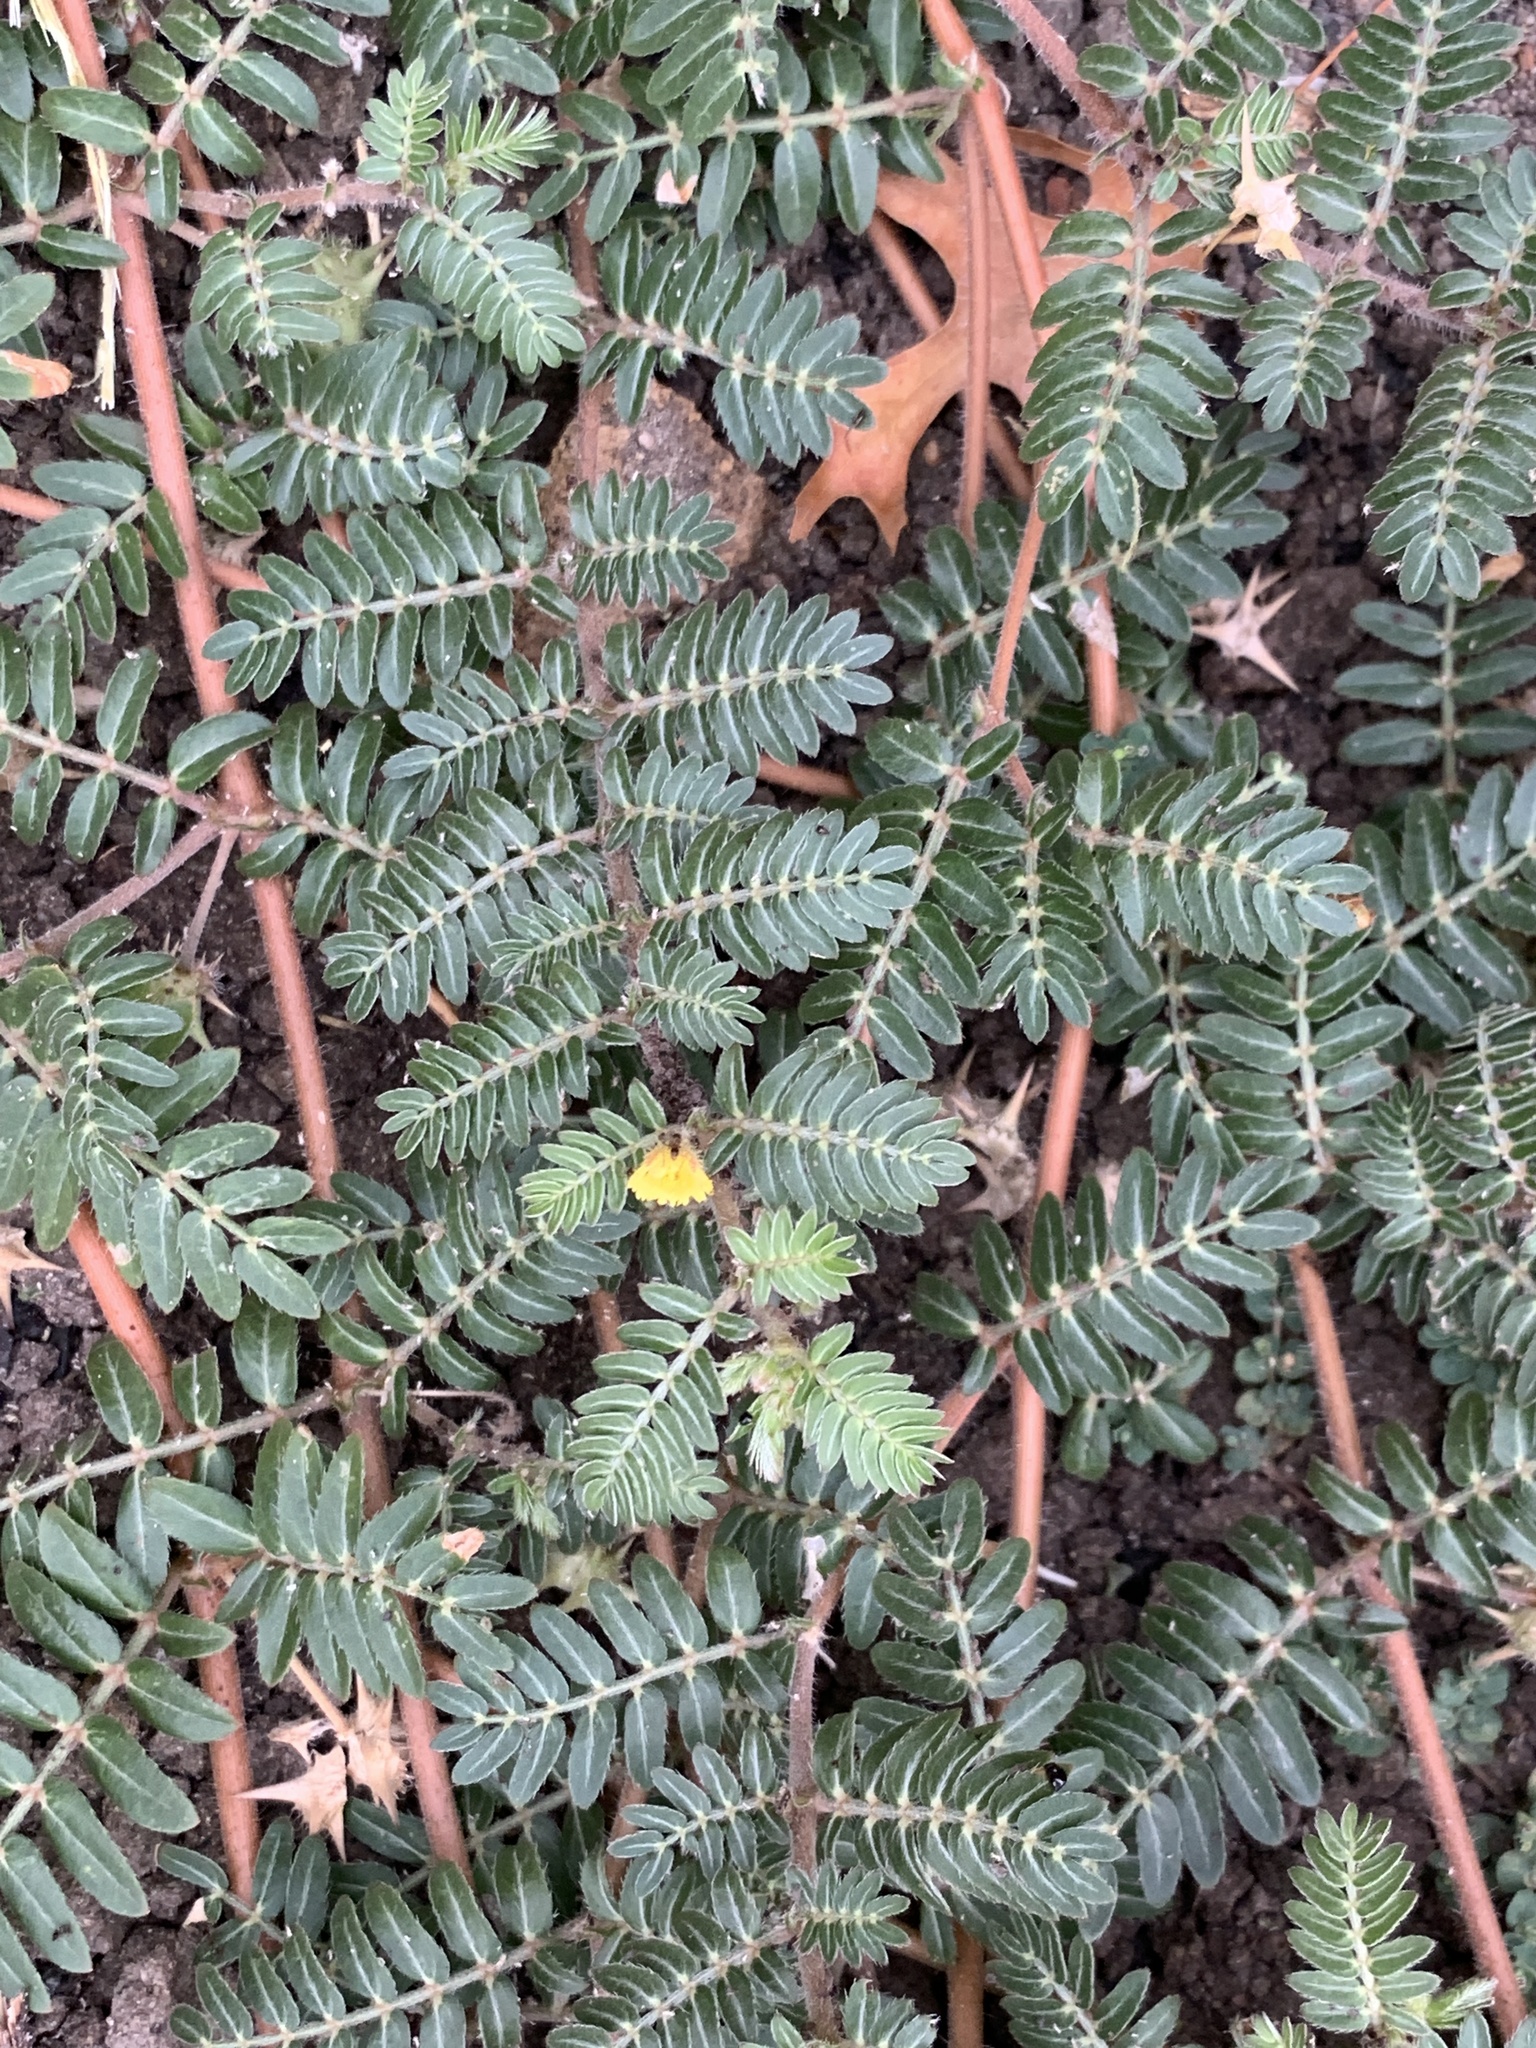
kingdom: Plantae
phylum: Tracheophyta
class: Magnoliopsida
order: Zygophyllales
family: Zygophyllaceae
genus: Tribulus
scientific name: Tribulus terrestris
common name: Puncturevine
